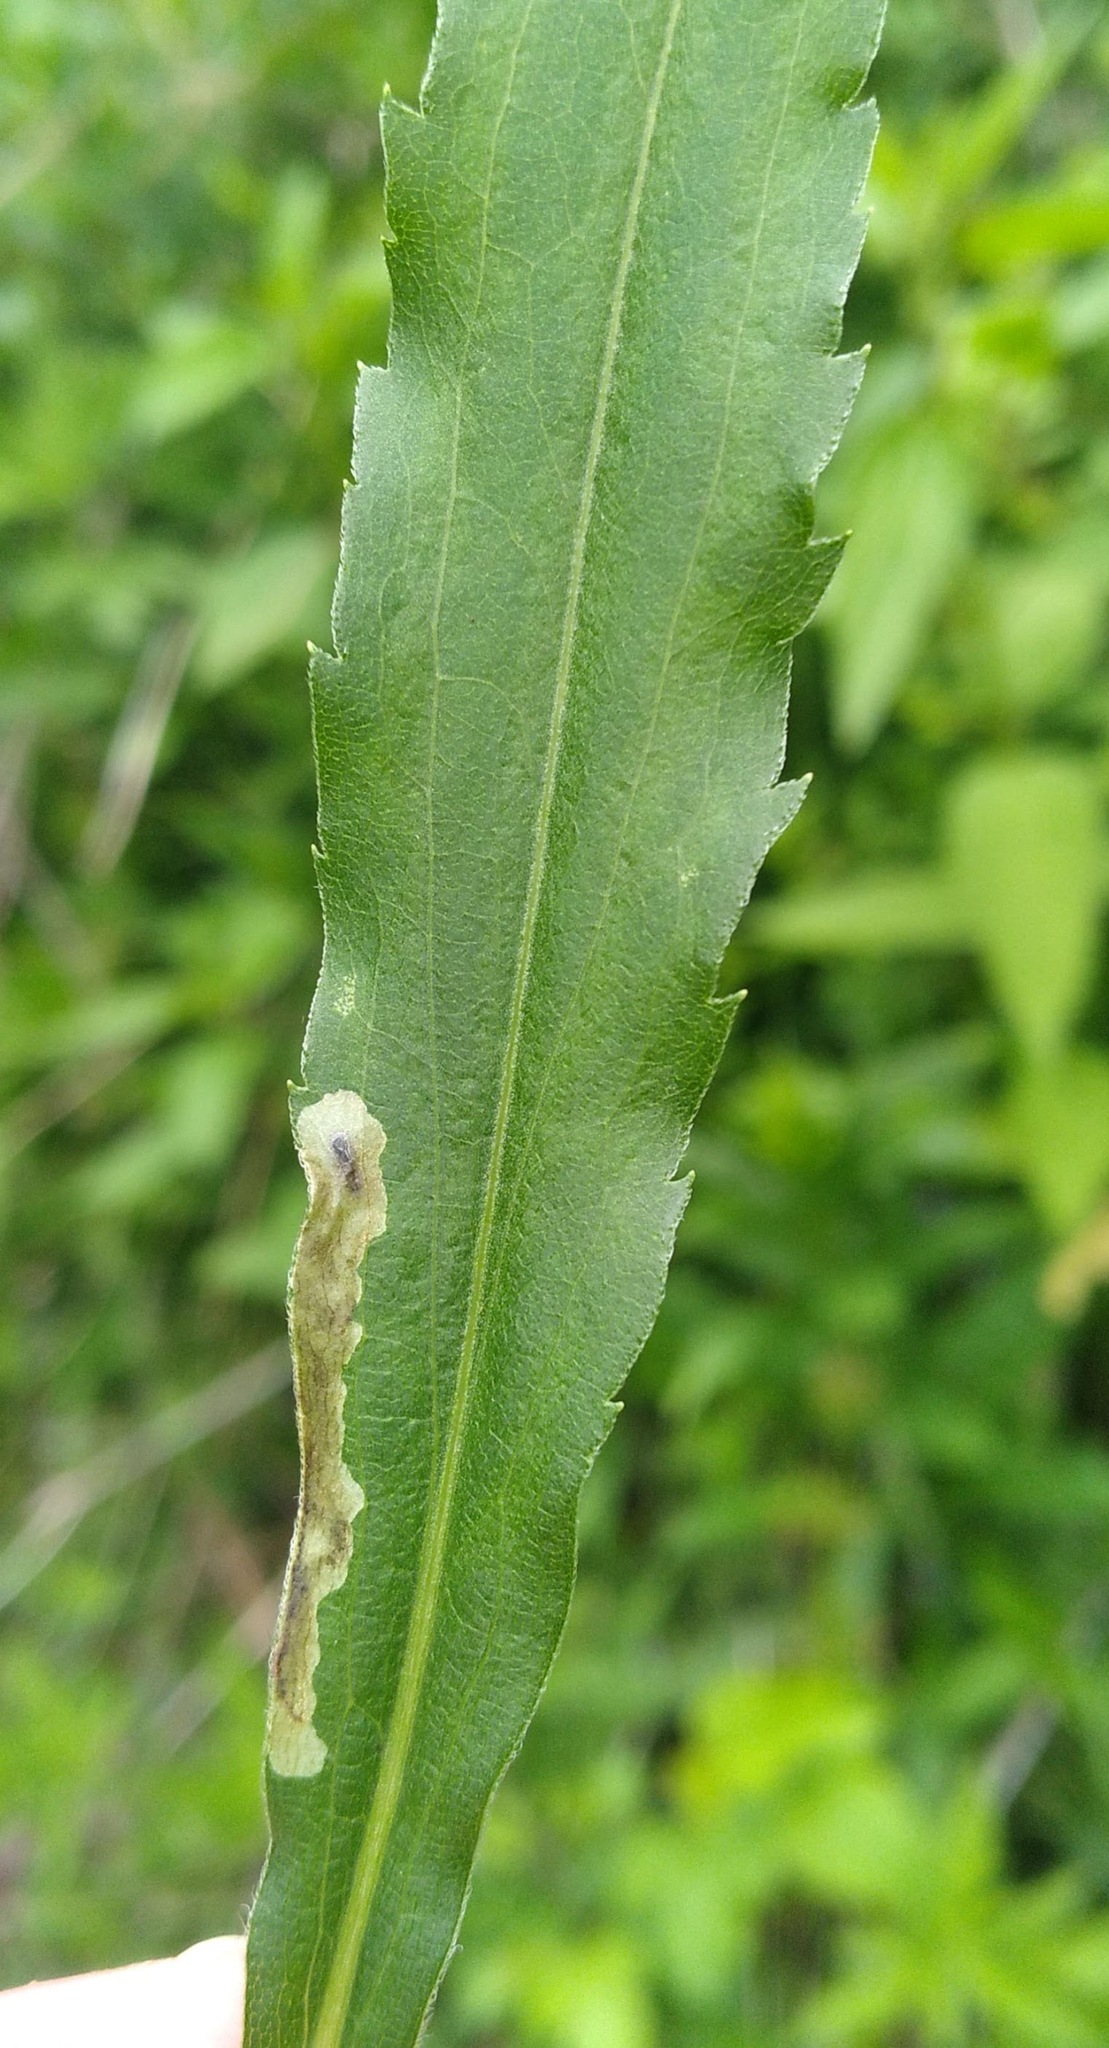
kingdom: Animalia
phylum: Arthropoda
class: Insecta
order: Diptera
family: Agromyzidae
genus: Calycomyza
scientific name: Calycomyza solidaginis
